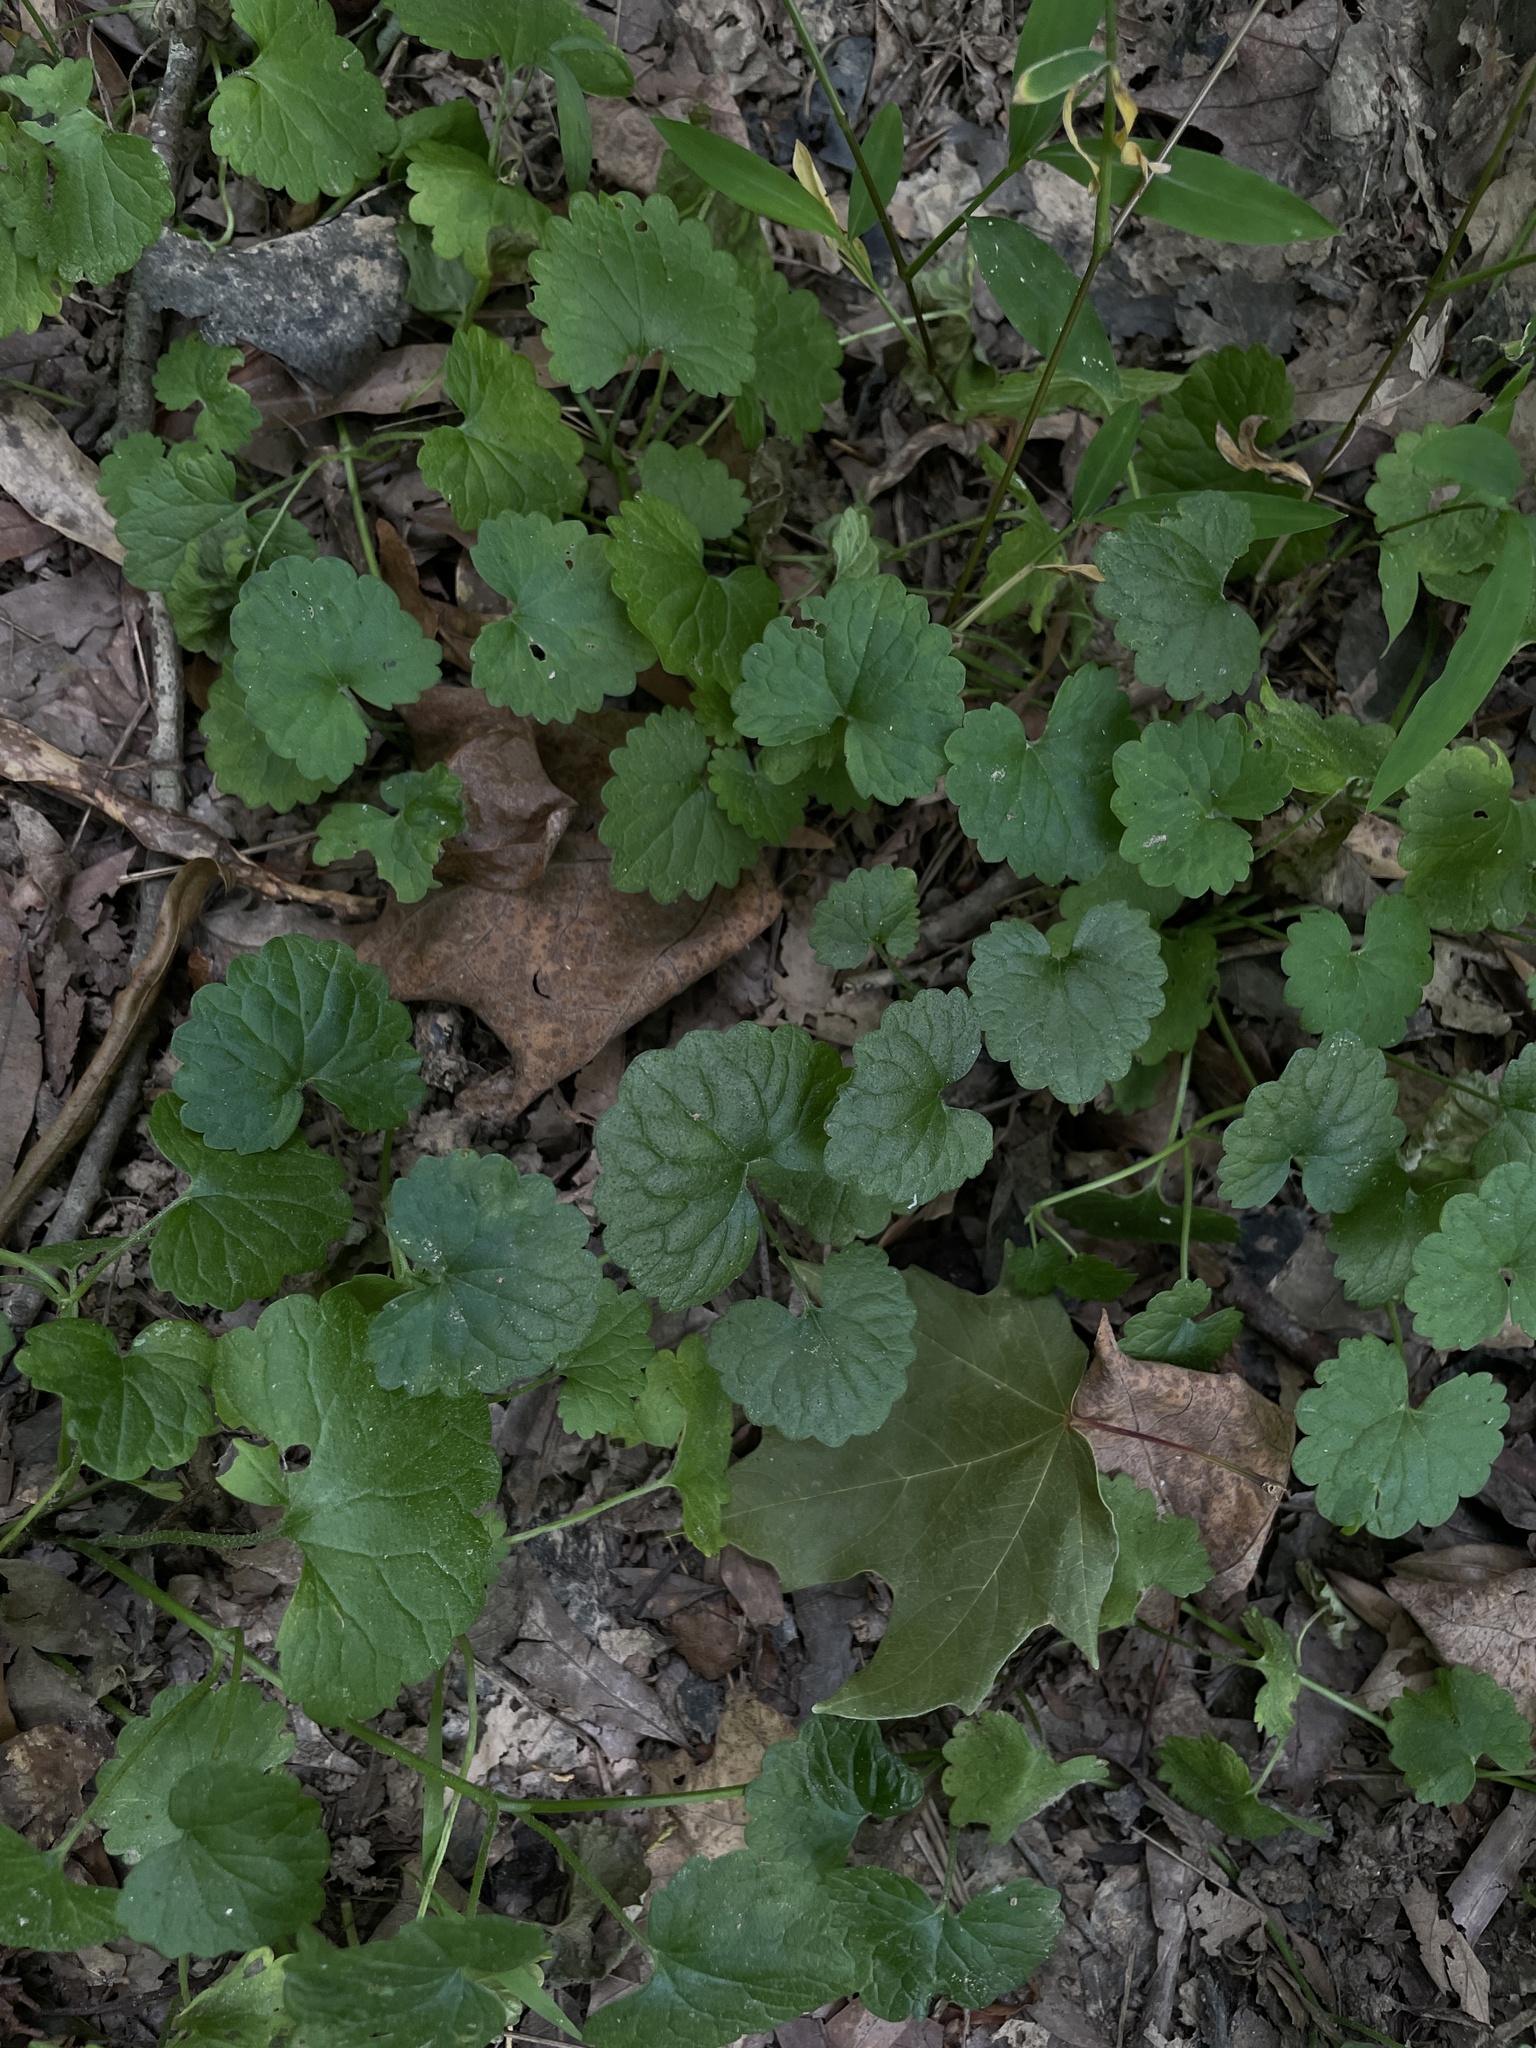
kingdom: Plantae
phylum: Tracheophyta
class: Magnoliopsida
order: Lamiales
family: Lamiaceae
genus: Glechoma
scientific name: Glechoma hederacea
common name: Ground ivy
